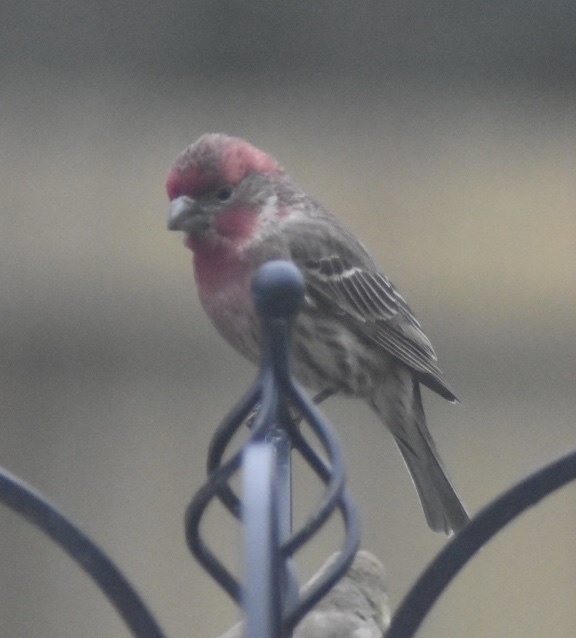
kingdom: Animalia
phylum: Chordata
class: Aves
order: Passeriformes
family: Fringillidae
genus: Haemorhous
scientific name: Haemorhous mexicanus
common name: House finch
